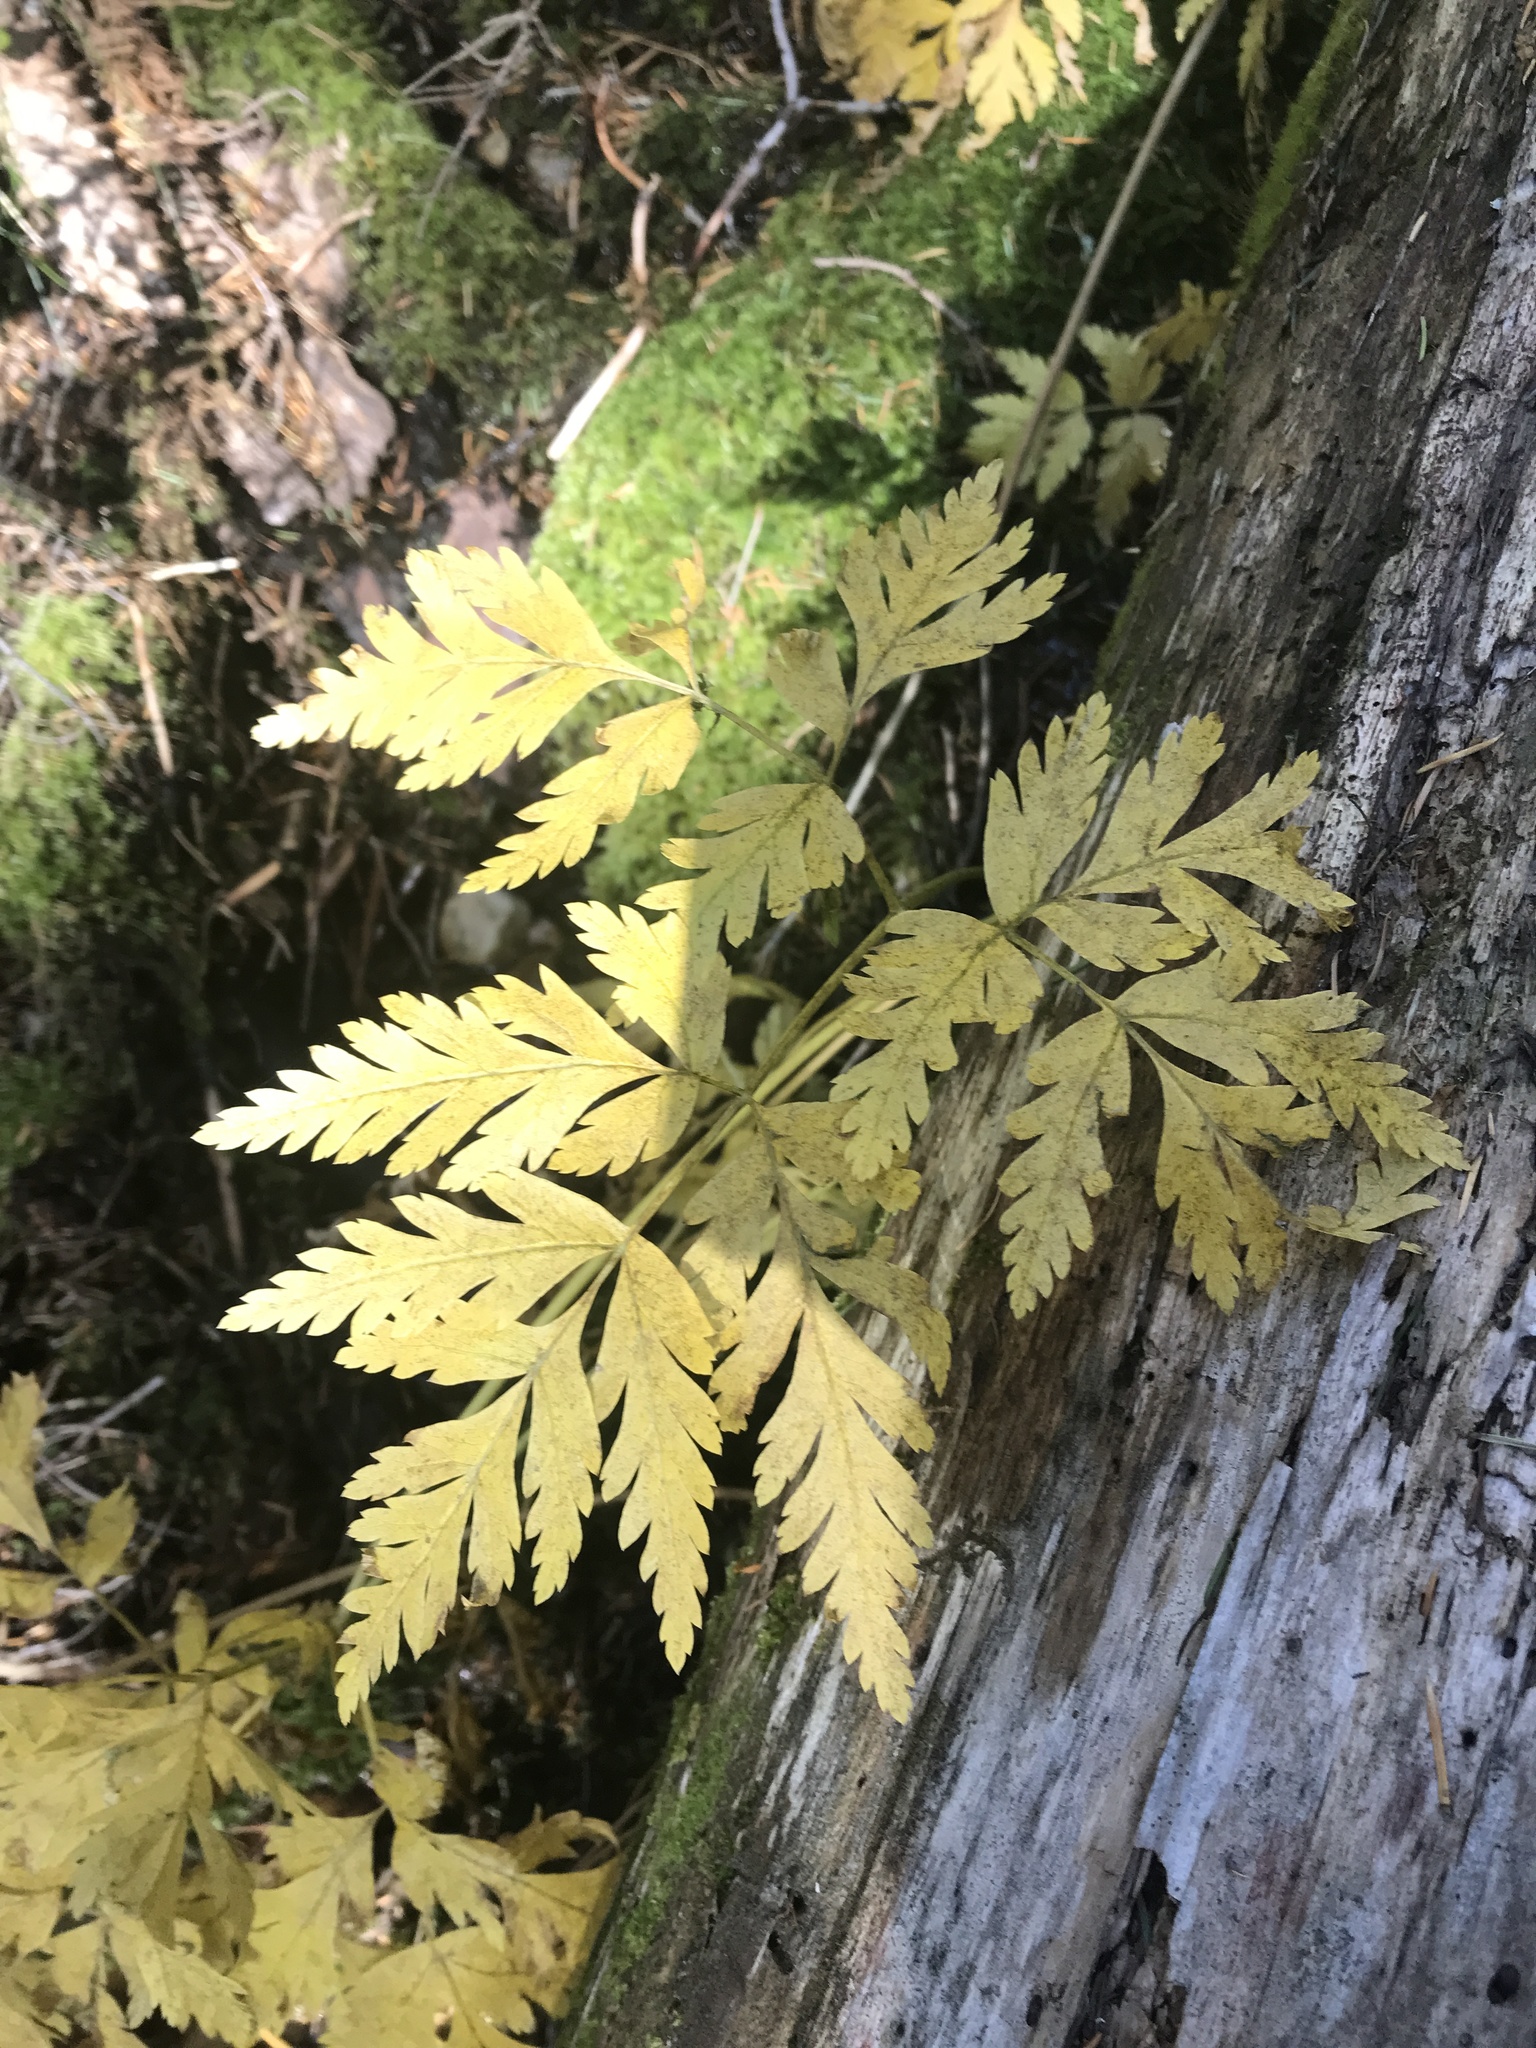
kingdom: Plantae
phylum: Tracheophyta
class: Polypodiopsida
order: Ophioglossales
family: Ophioglossaceae
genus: Botrypus
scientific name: Botrypus virginianus
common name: Common grapefern
